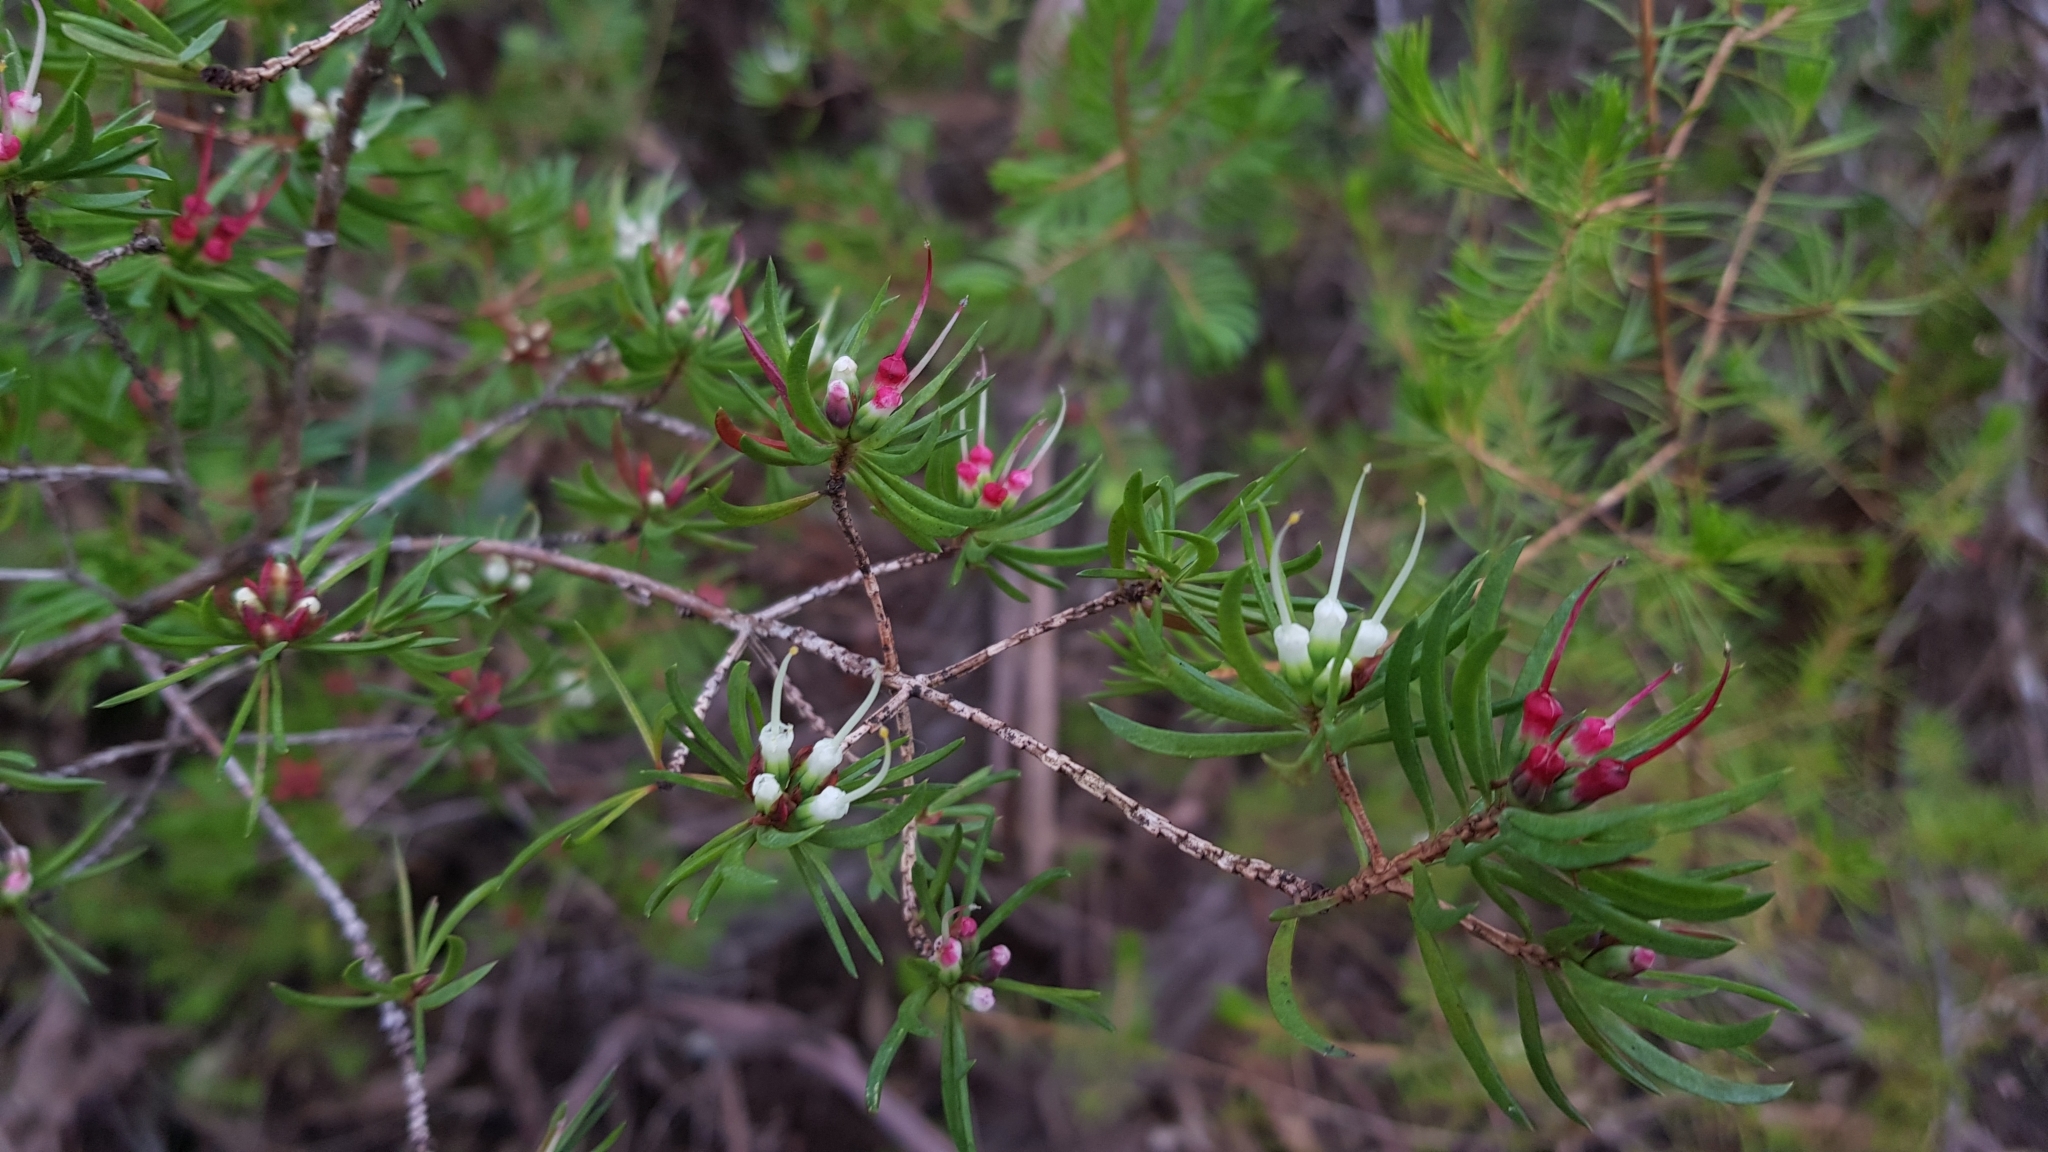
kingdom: Plantae
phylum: Tracheophyta
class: Magnoliopsida
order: Myrtales
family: Myrtaceae
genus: Darwinia
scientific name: Darwinia procera
